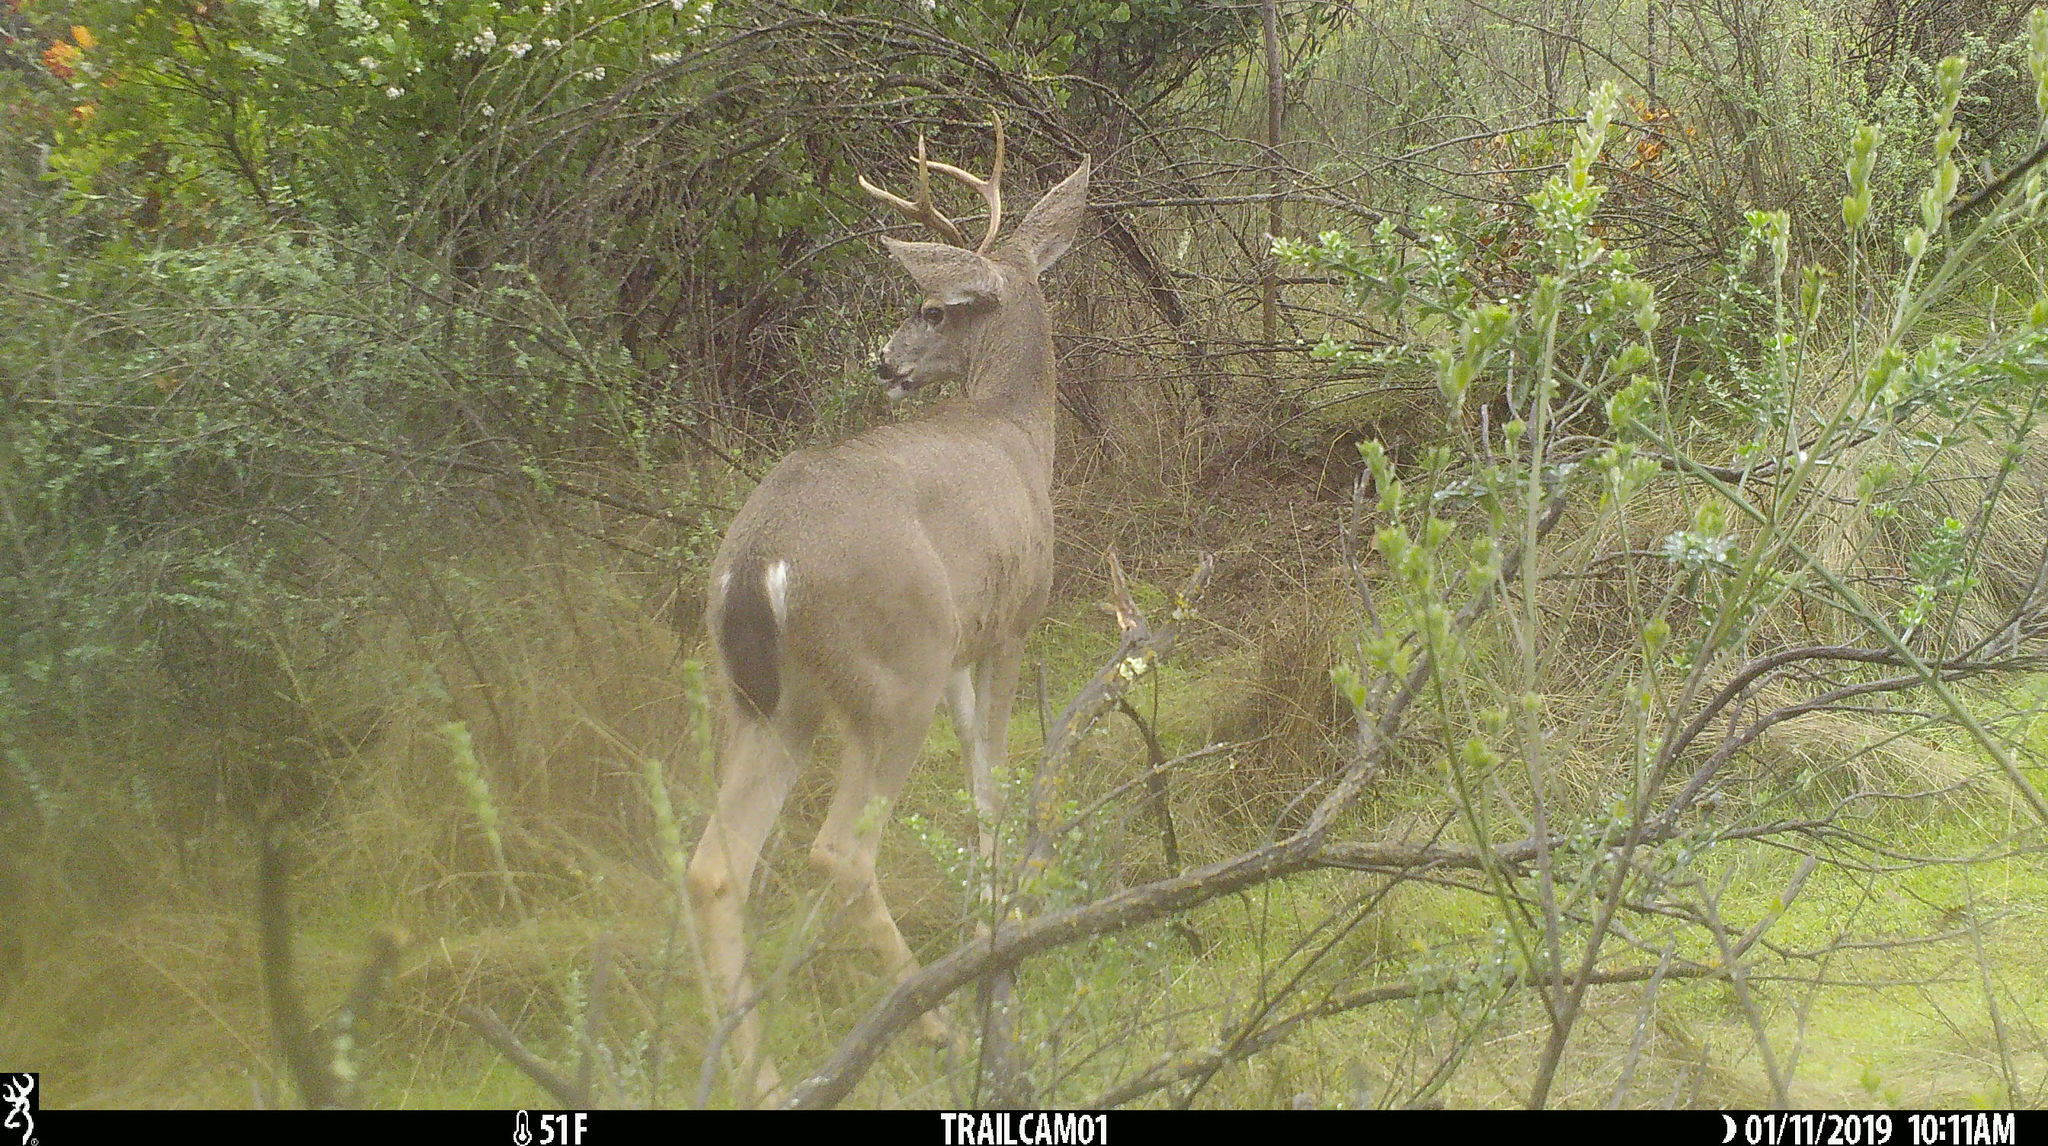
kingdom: Animalia
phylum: Chordata
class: Mammalia
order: Artiodactyla
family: Cervidae
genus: Odocoileus
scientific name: Odocoileus hemionus
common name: Mule deer
